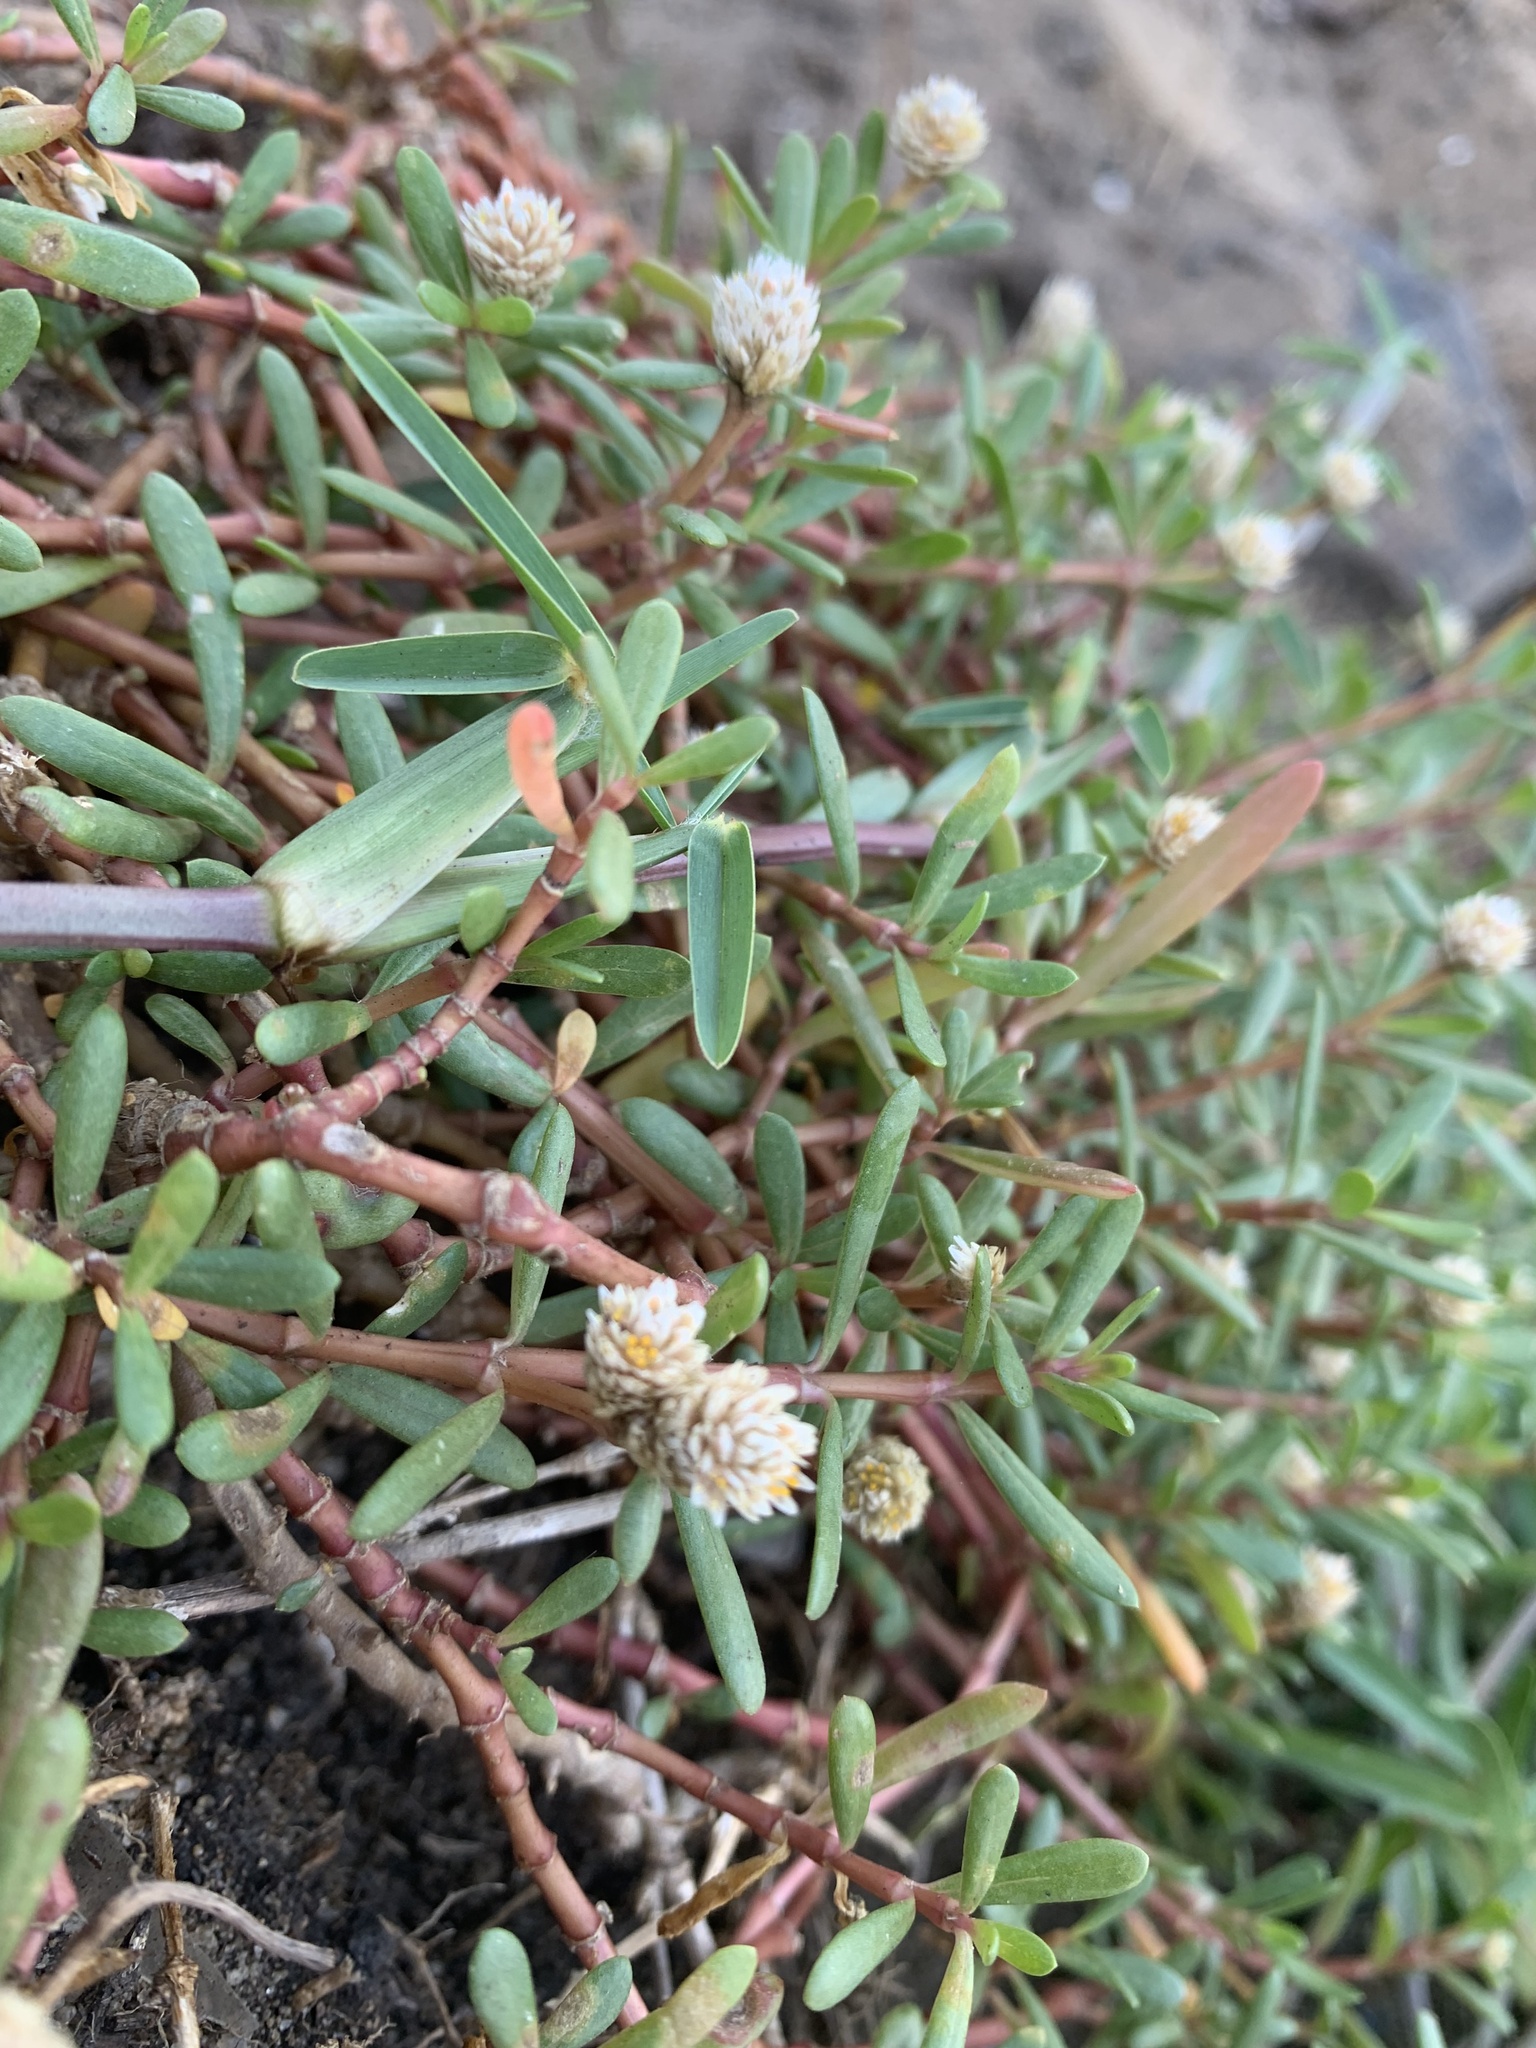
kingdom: Plantae
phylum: Tracheophyta
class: Magnoliopsida
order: Caryophyllales
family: Amaranthaceae
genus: Gomphrena
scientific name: Gomphrena portulacoides
